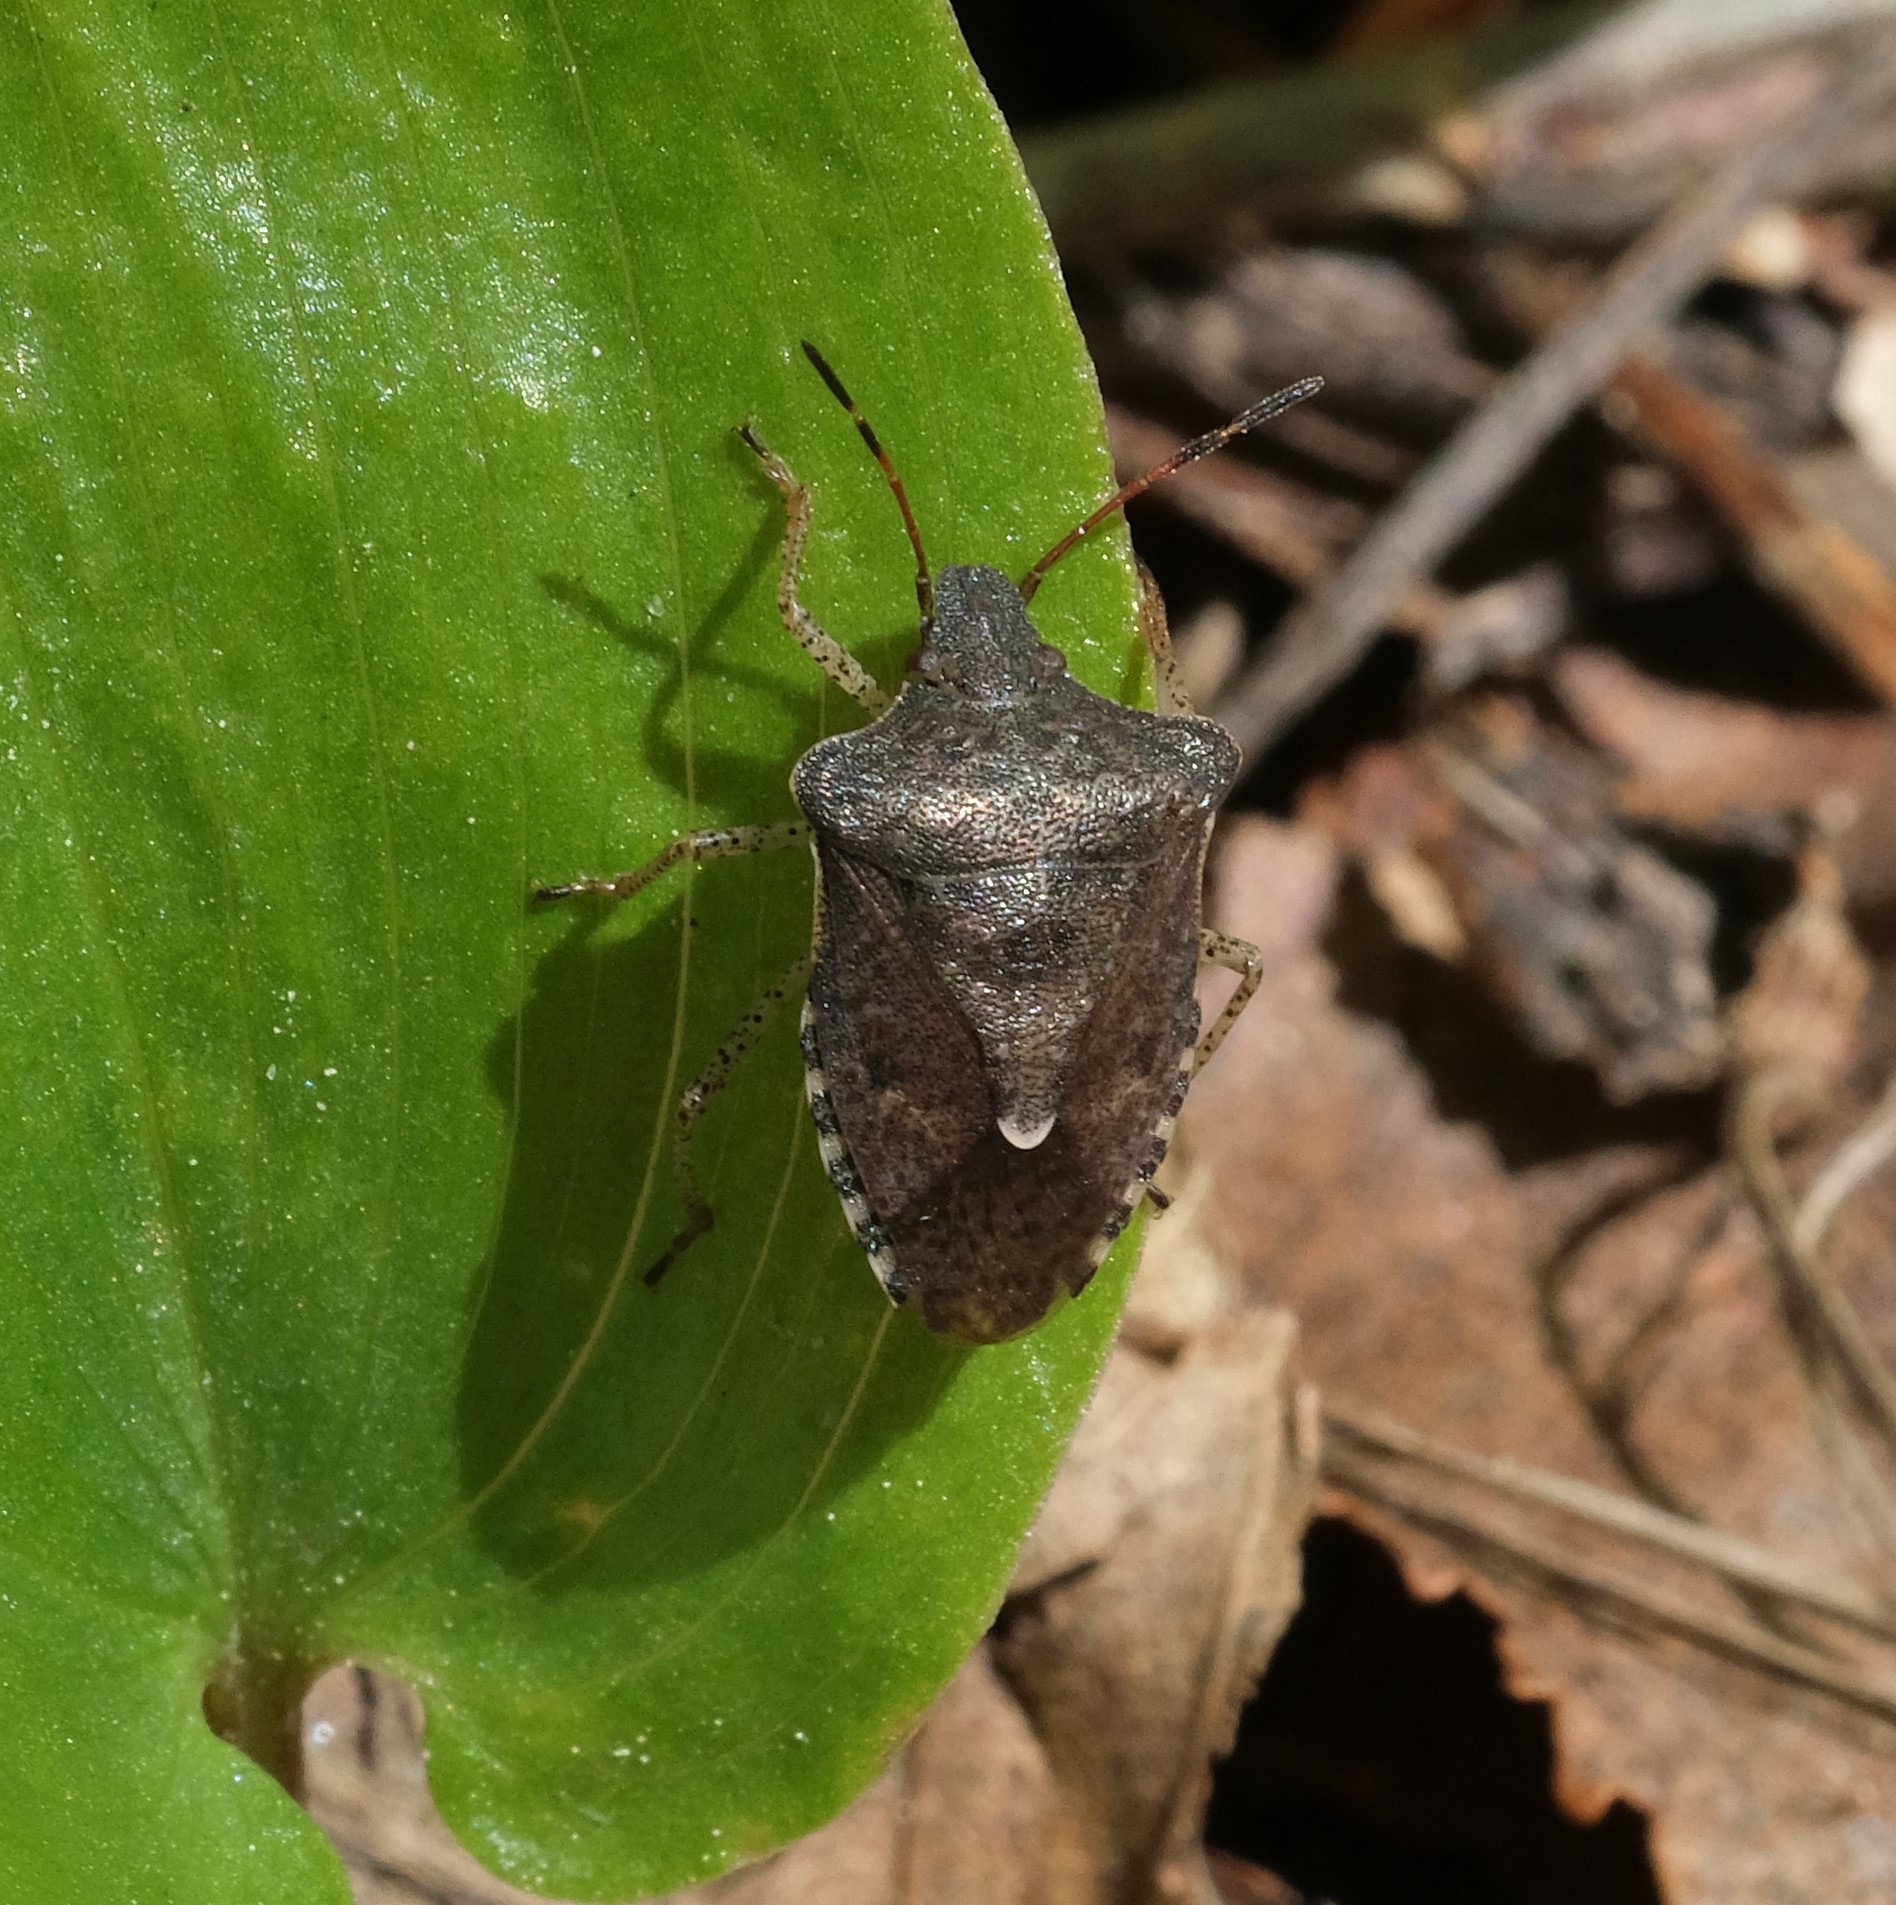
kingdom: Animalia
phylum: Arthropoda
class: Insecta
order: Hemiptera
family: Pentatomidae
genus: Euschistus
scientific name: Euschistus tristigmus
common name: Dusky stink bug
